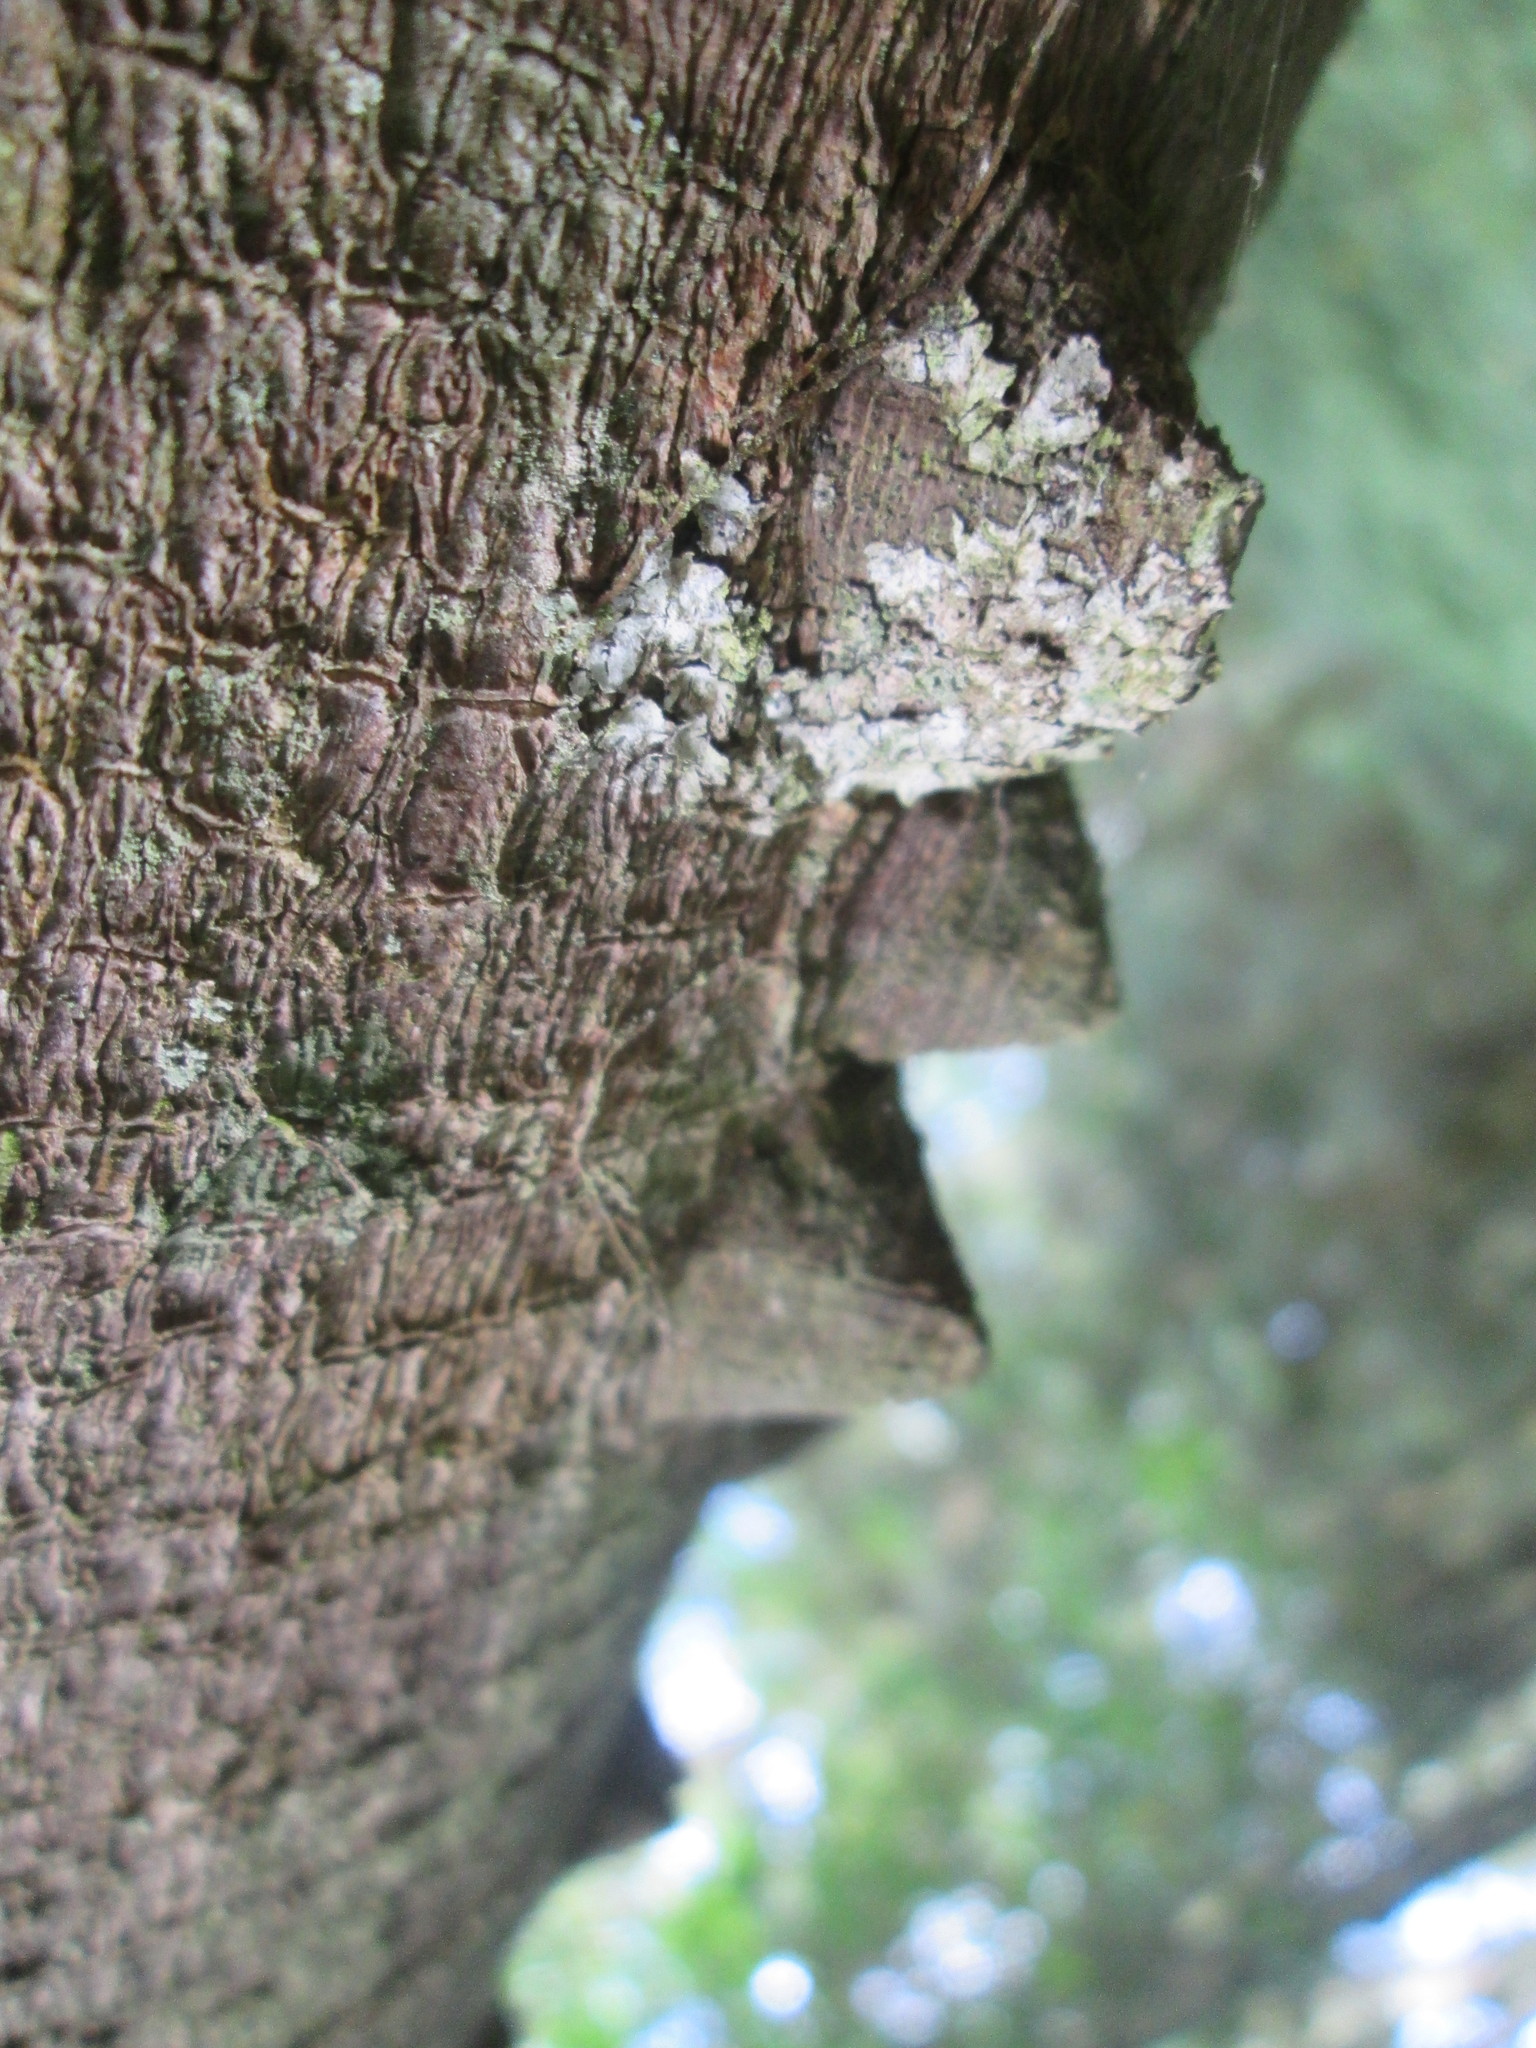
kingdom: Plantae
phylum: Tracheophyta
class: Magnoliopsida
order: Sapindales
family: Rutaceae
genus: Zanthoxylum
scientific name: Zanthoxylum capense
